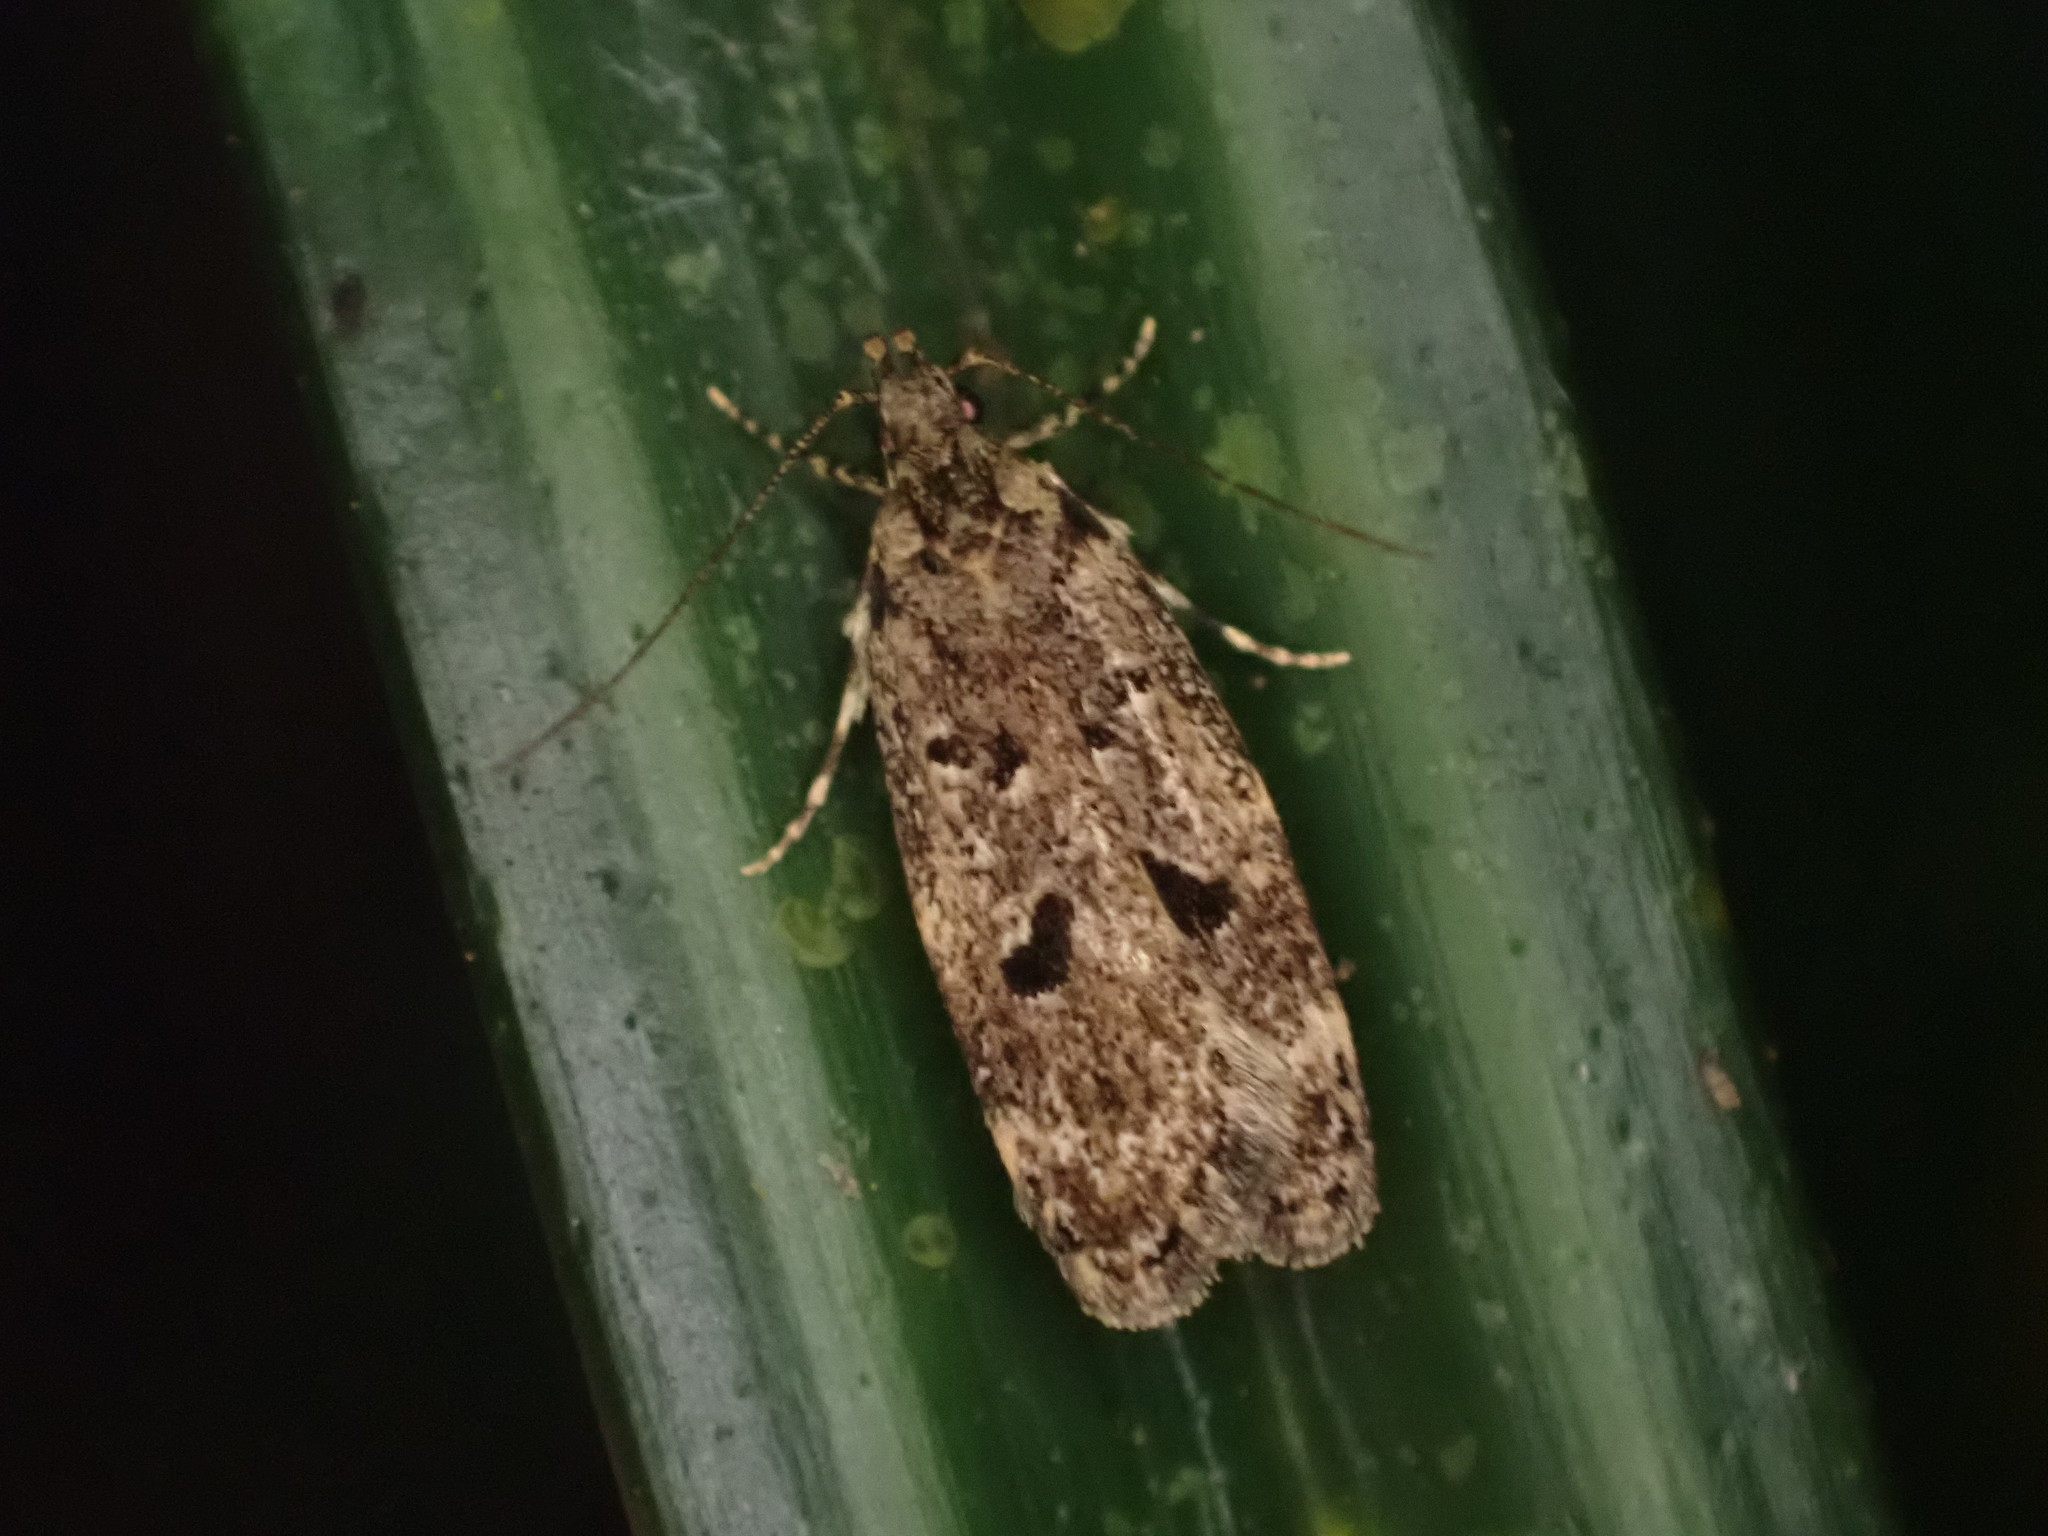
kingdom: Animalia
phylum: Arthropoda
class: Insecta
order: Lepidoptera
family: Oecophoridae
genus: Gymnobathra
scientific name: Gymnobathra dinocosma
